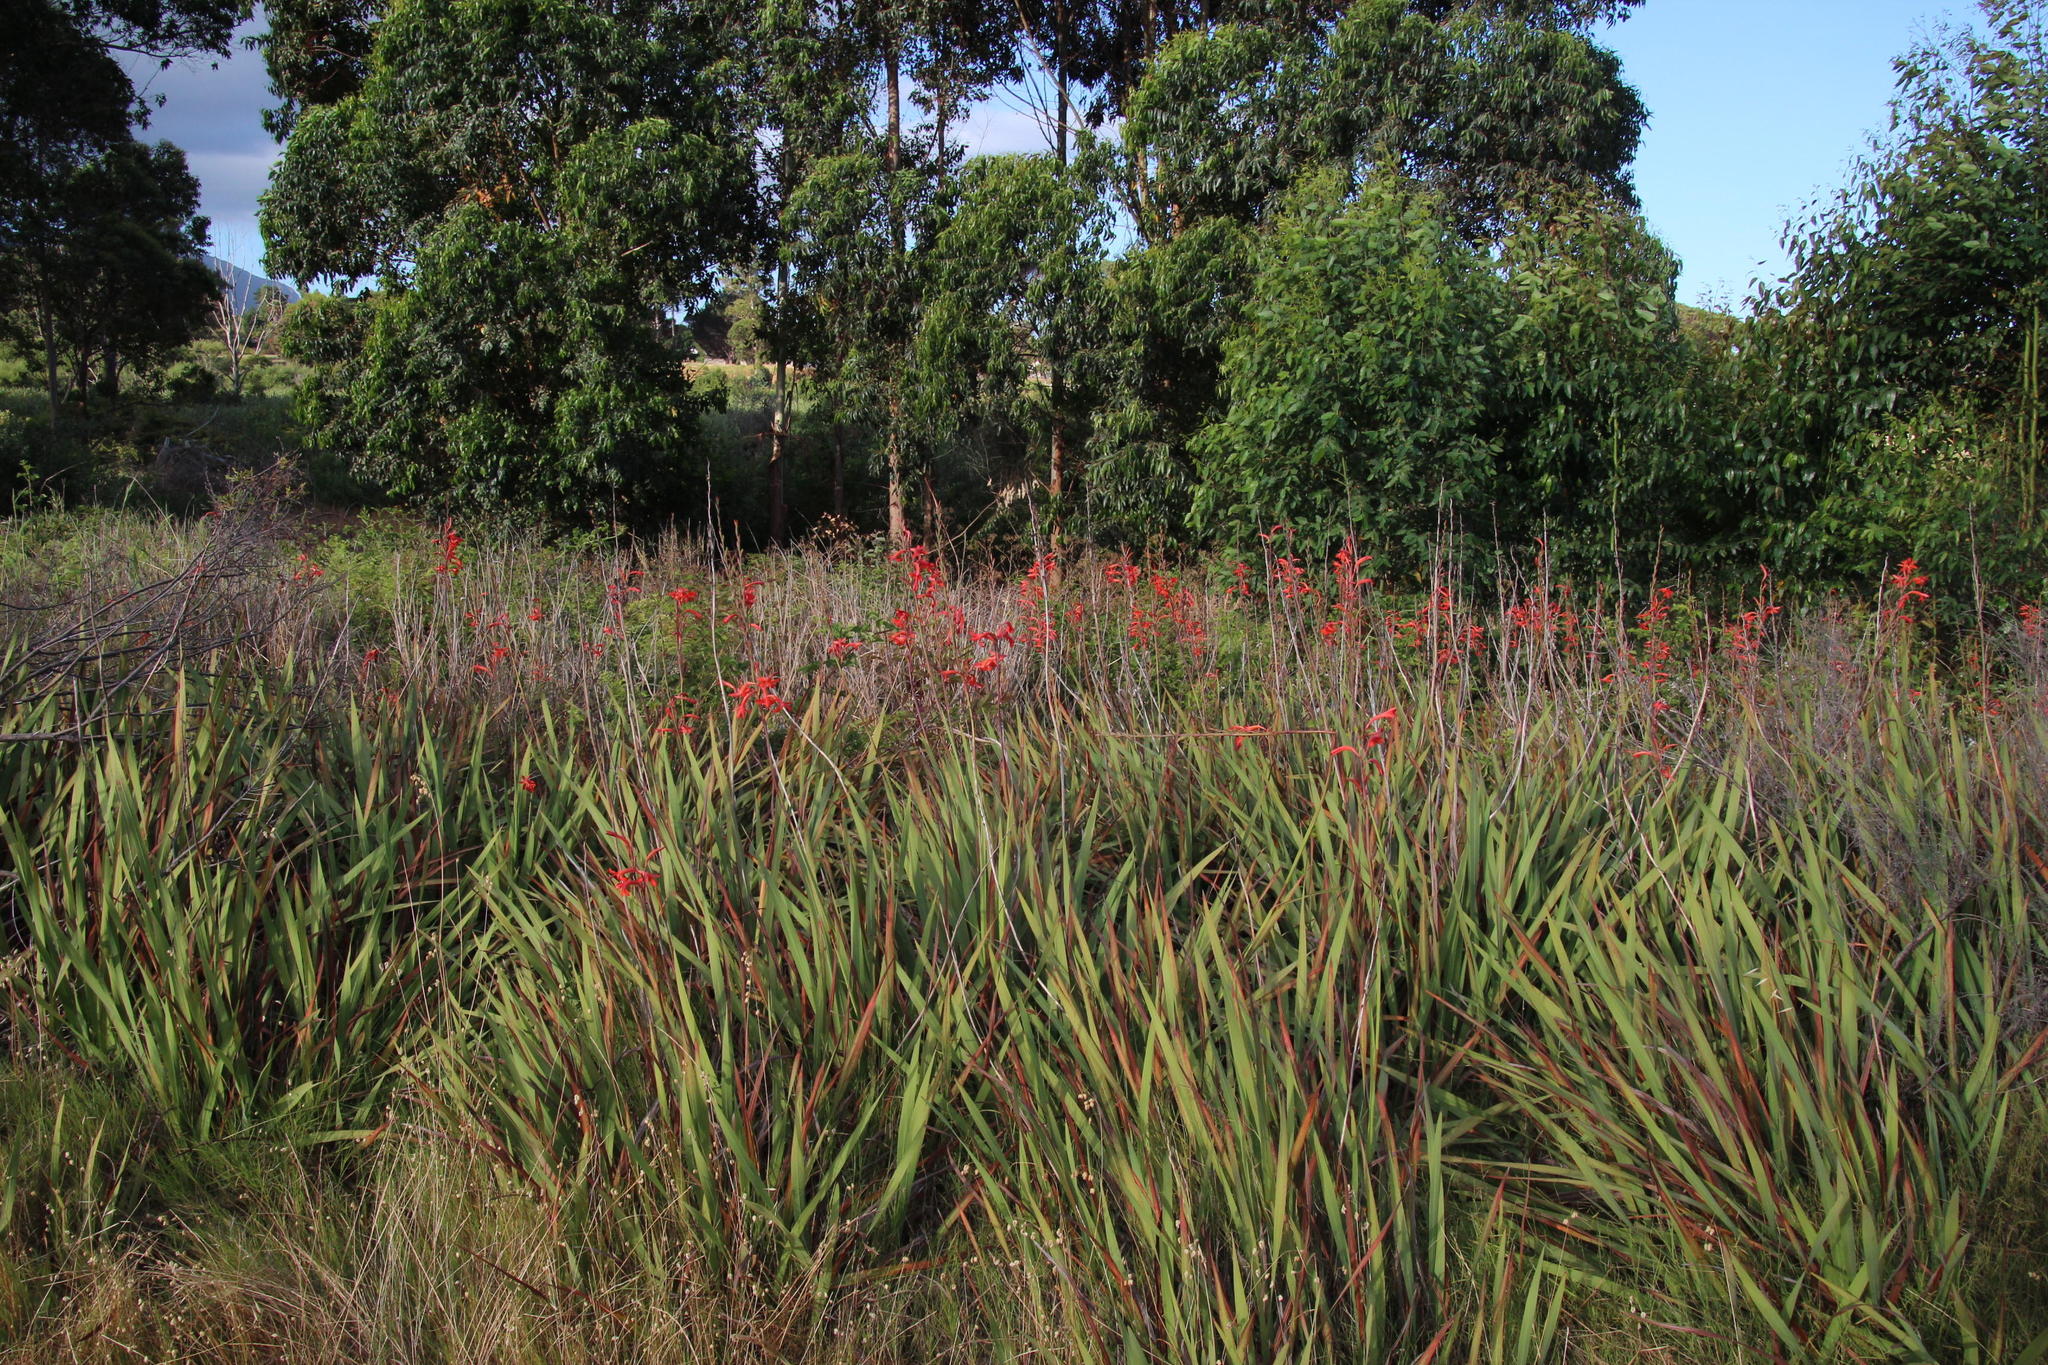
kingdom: Plantae
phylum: Tracheophyta
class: Liliopsida
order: Asparagales
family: Iridaceae
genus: Watsonia
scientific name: Watsonia angusta
